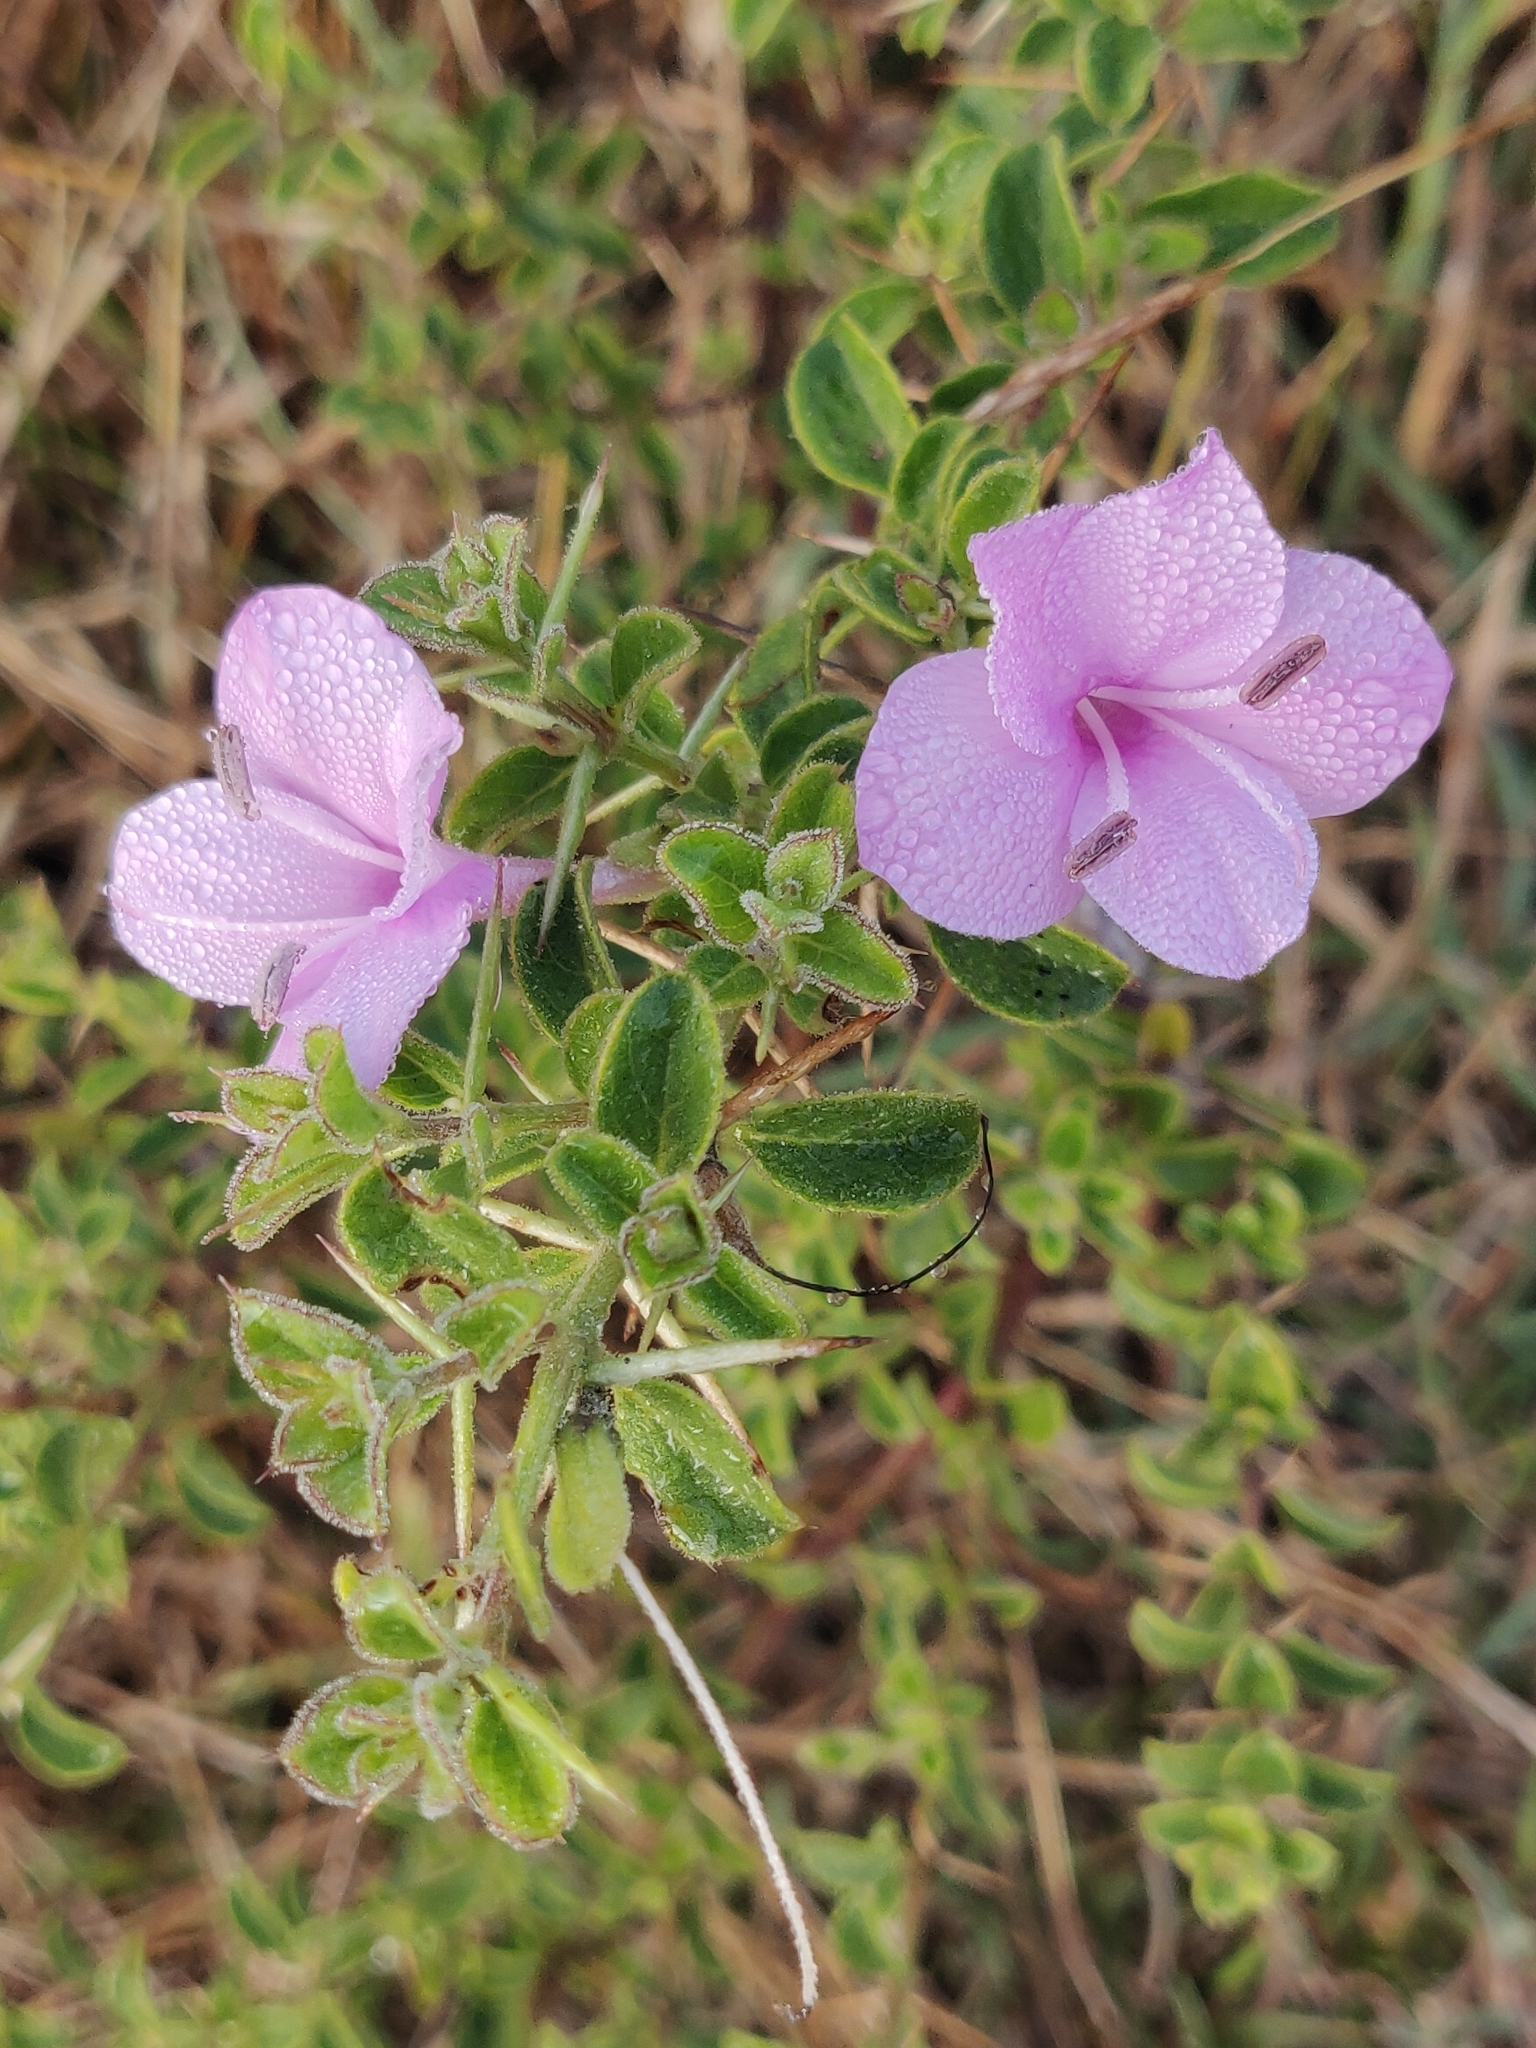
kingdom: Plantae
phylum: Tracheophyta
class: Magnoliopsida
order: Lamiales
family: Acanthaceae
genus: Barleria
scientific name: Barleria buxifolia
